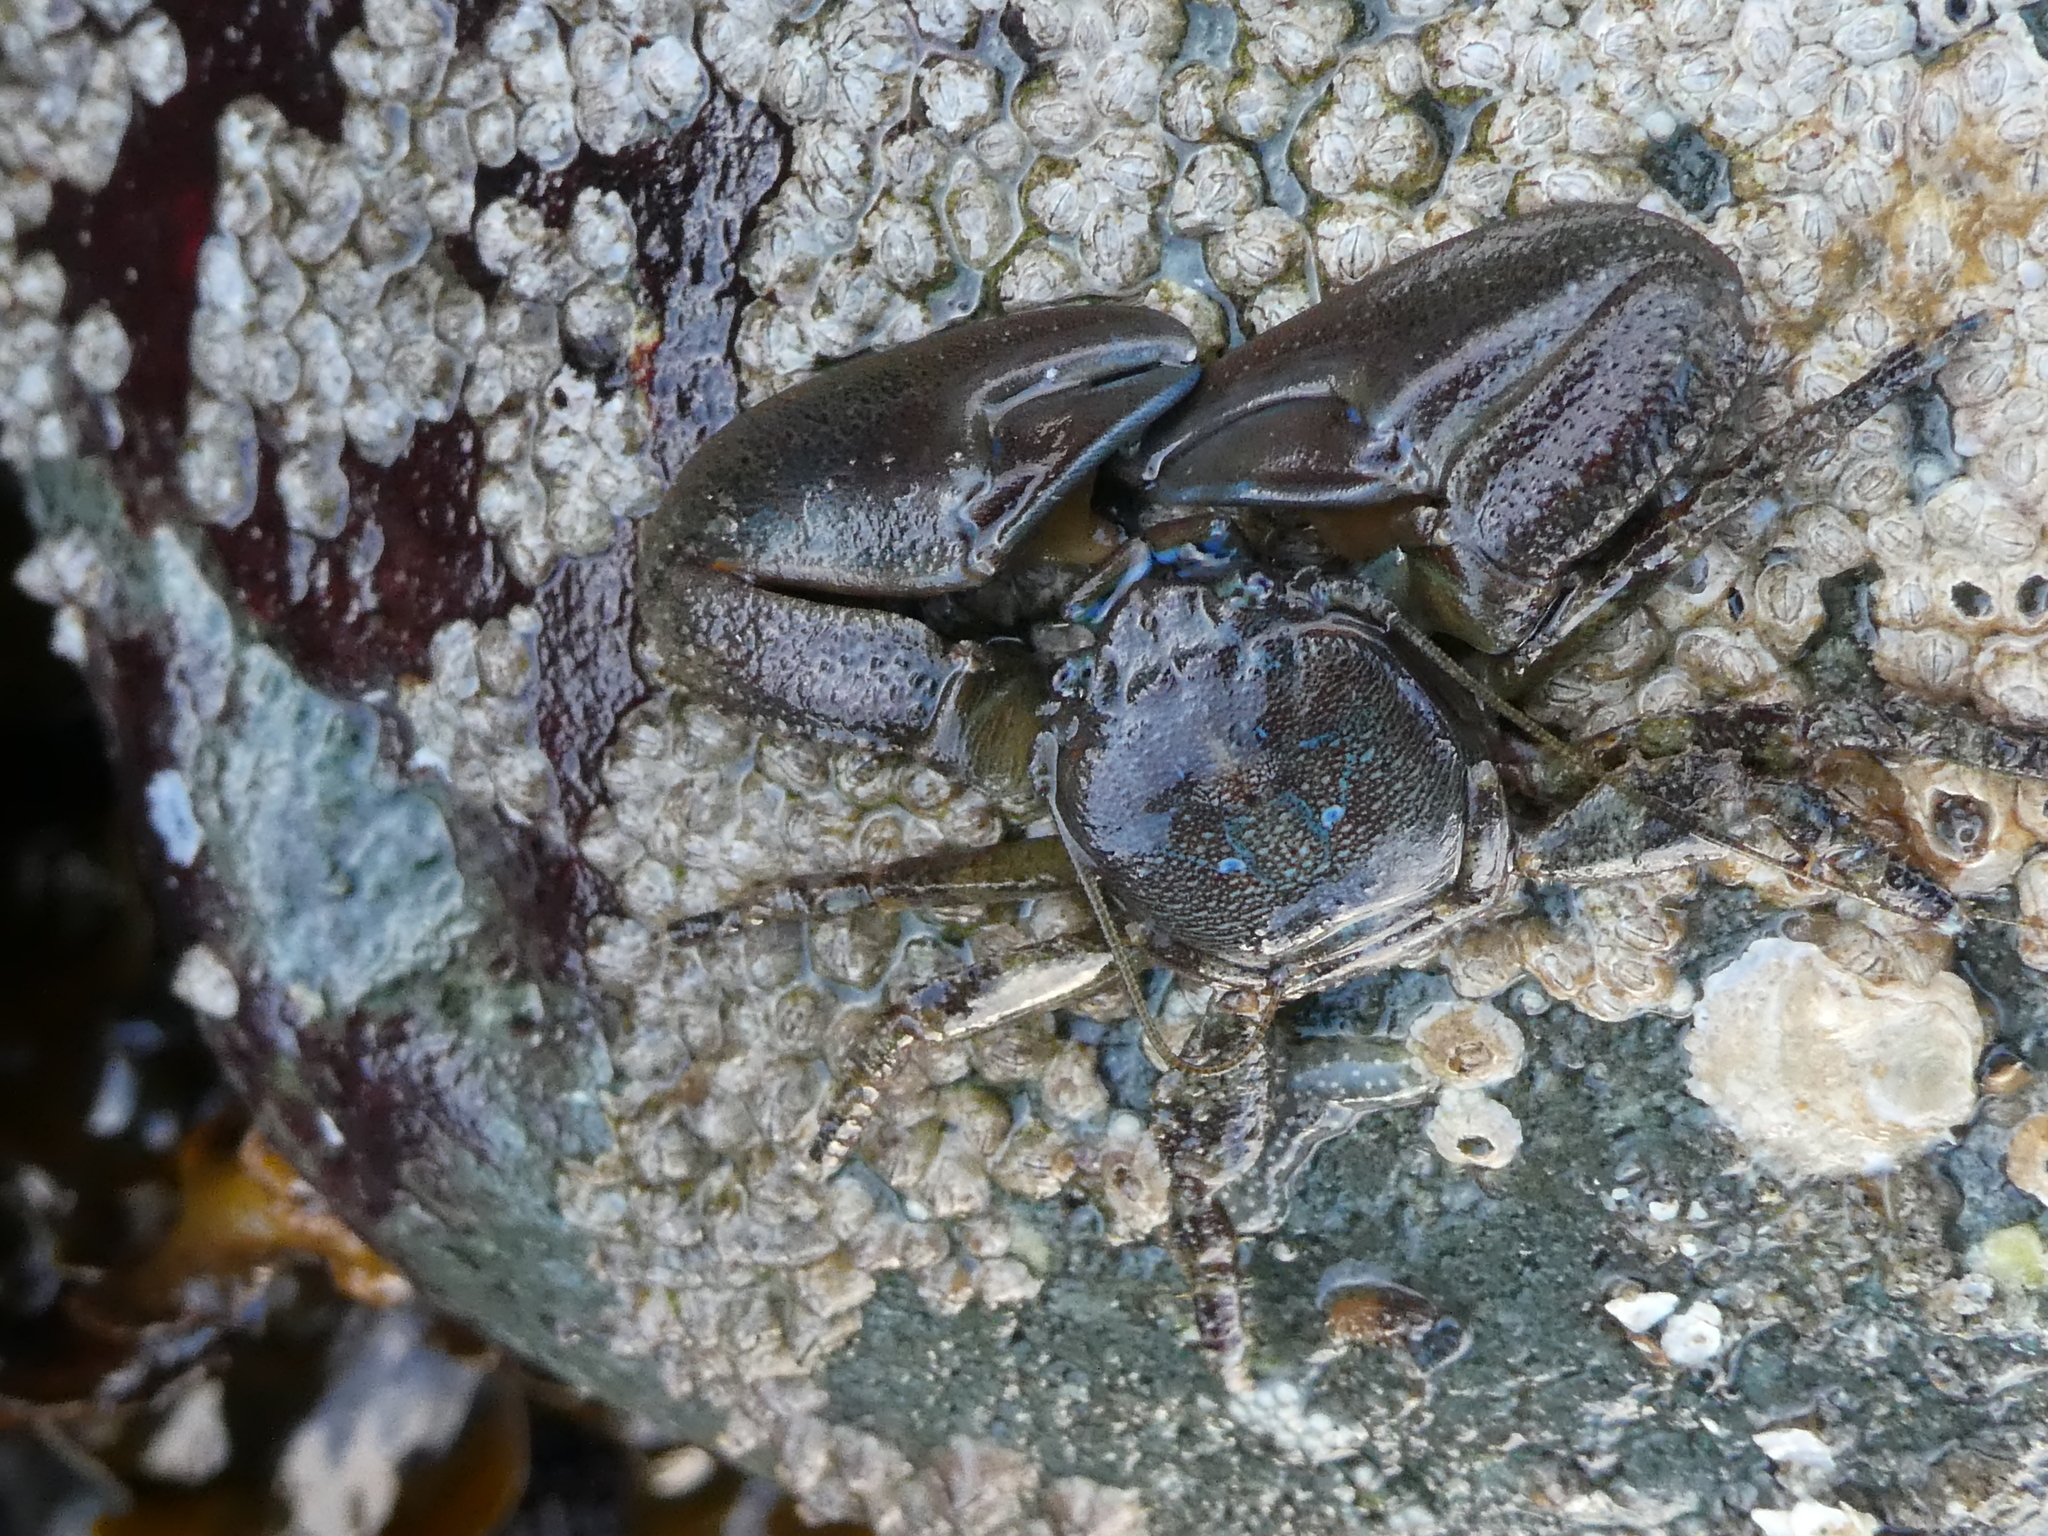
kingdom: Animalia
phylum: Arthropoda
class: Malacostraca
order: Decapoda
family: Porcellanidae
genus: Petrolisthes
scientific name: Petrolisthes eriomerus
